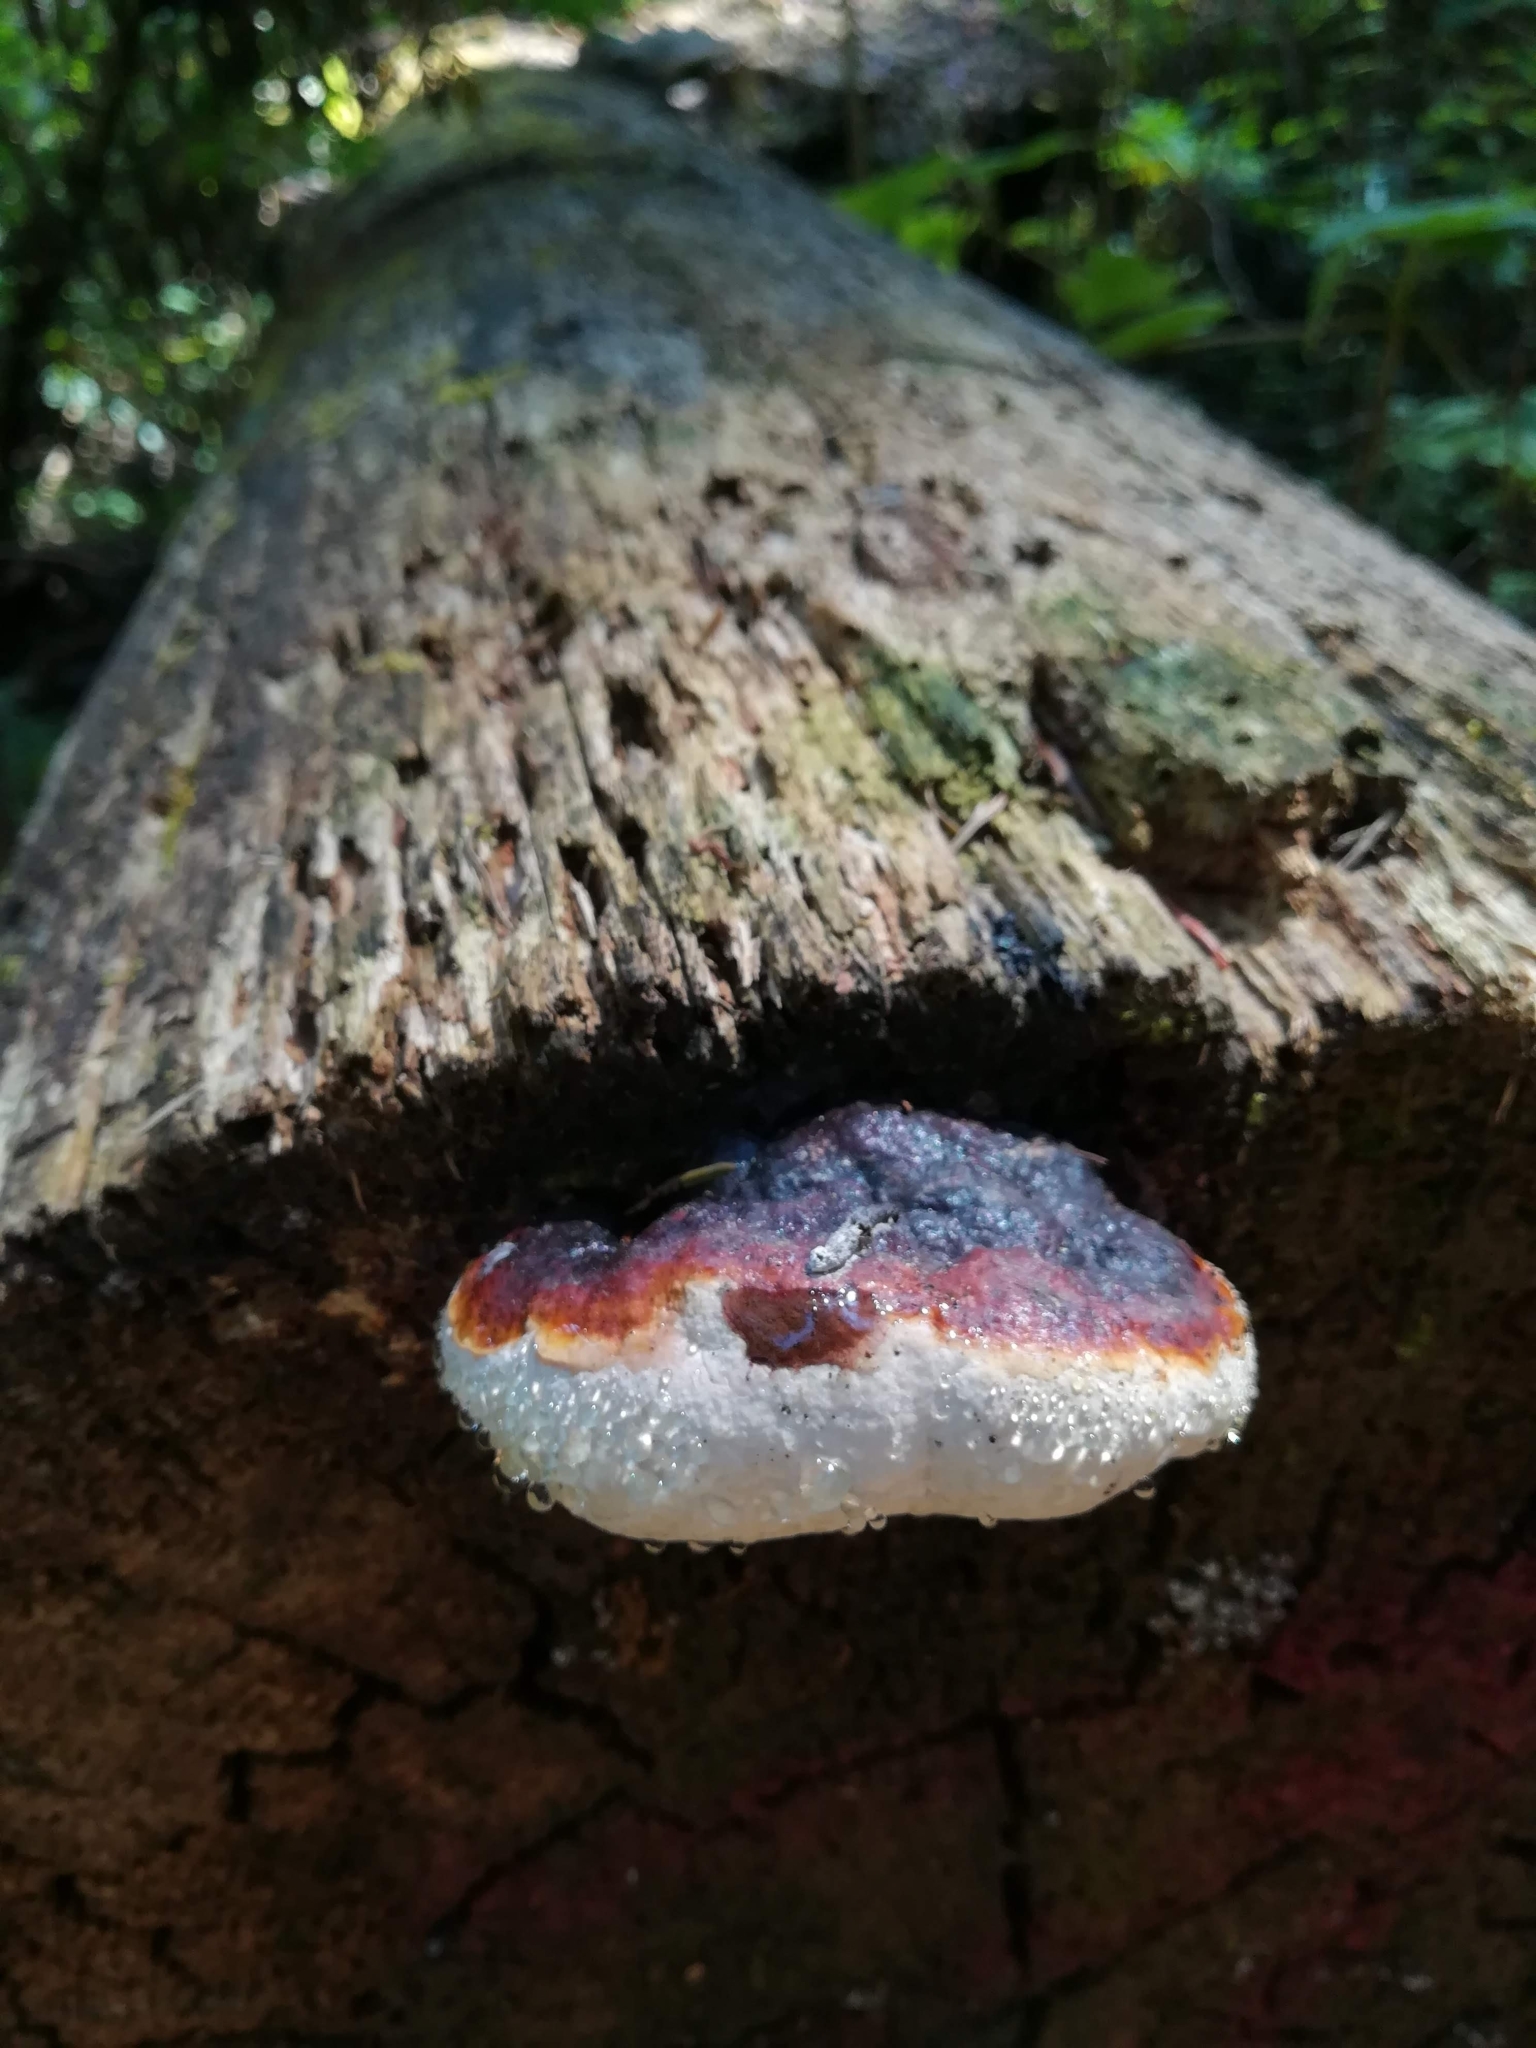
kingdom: Fungi
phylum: Basidiomycota
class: Agaricomycetes
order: Polyporales
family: Fomitopsidaceae
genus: Fomitopsis
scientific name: Fomitopsis schrenkii
